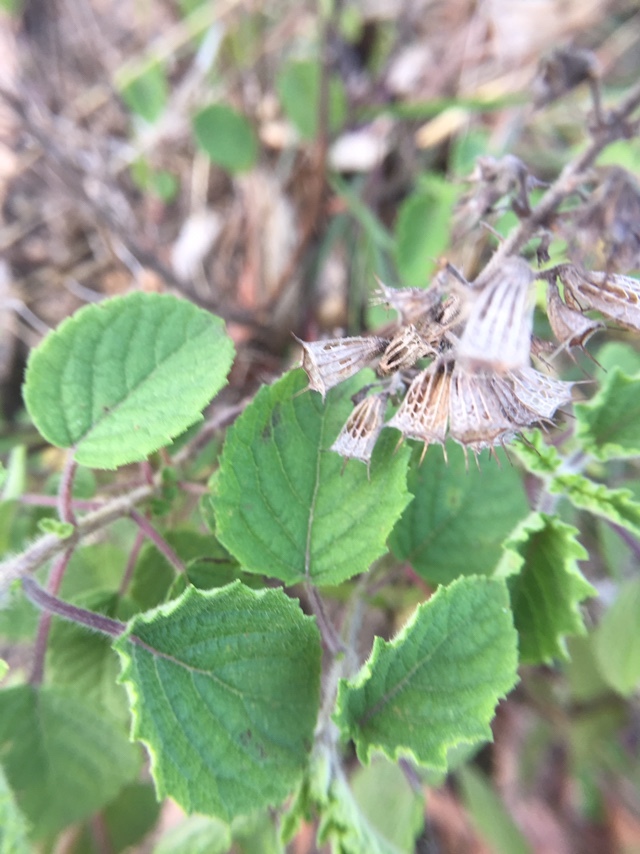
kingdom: Plantae
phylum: Tracheophyta
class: Magnoliopsida
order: Lamiales
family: Lamiaceae
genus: Mesosphaerum
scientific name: Mesosphaerum suaveolens
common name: Pignut
